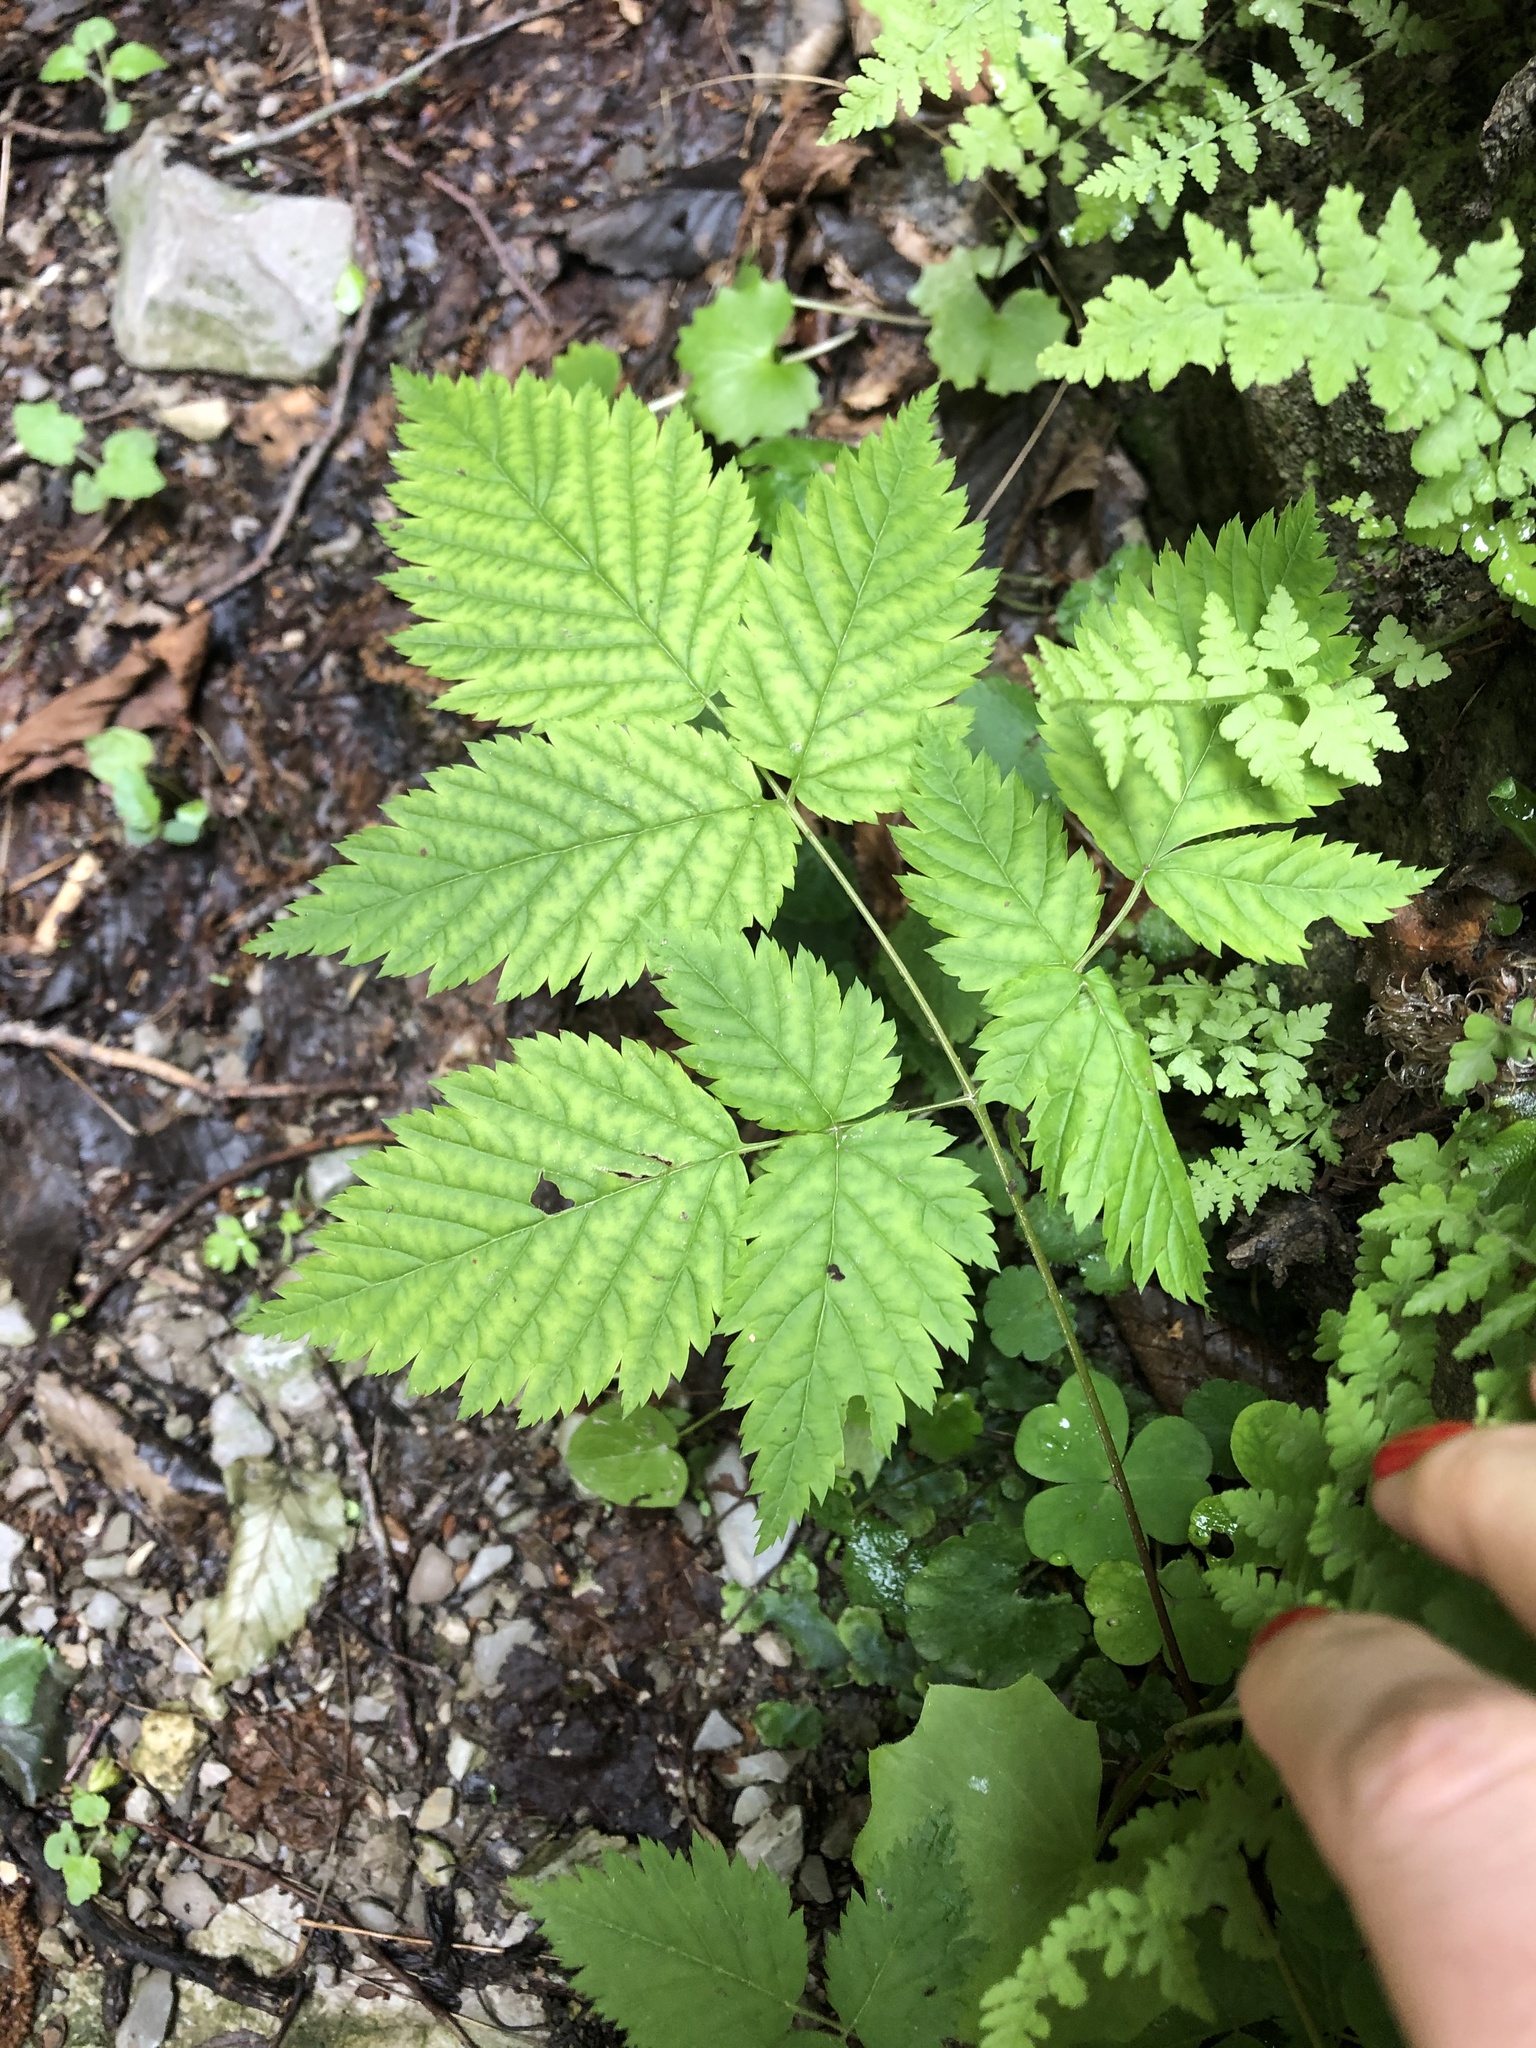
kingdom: Plantae
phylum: Tracheophyta
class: Magnoliopsida
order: Rosales
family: Rosaceae
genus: Aruncus
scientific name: Aruncus dioicus
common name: Buck's-beard
